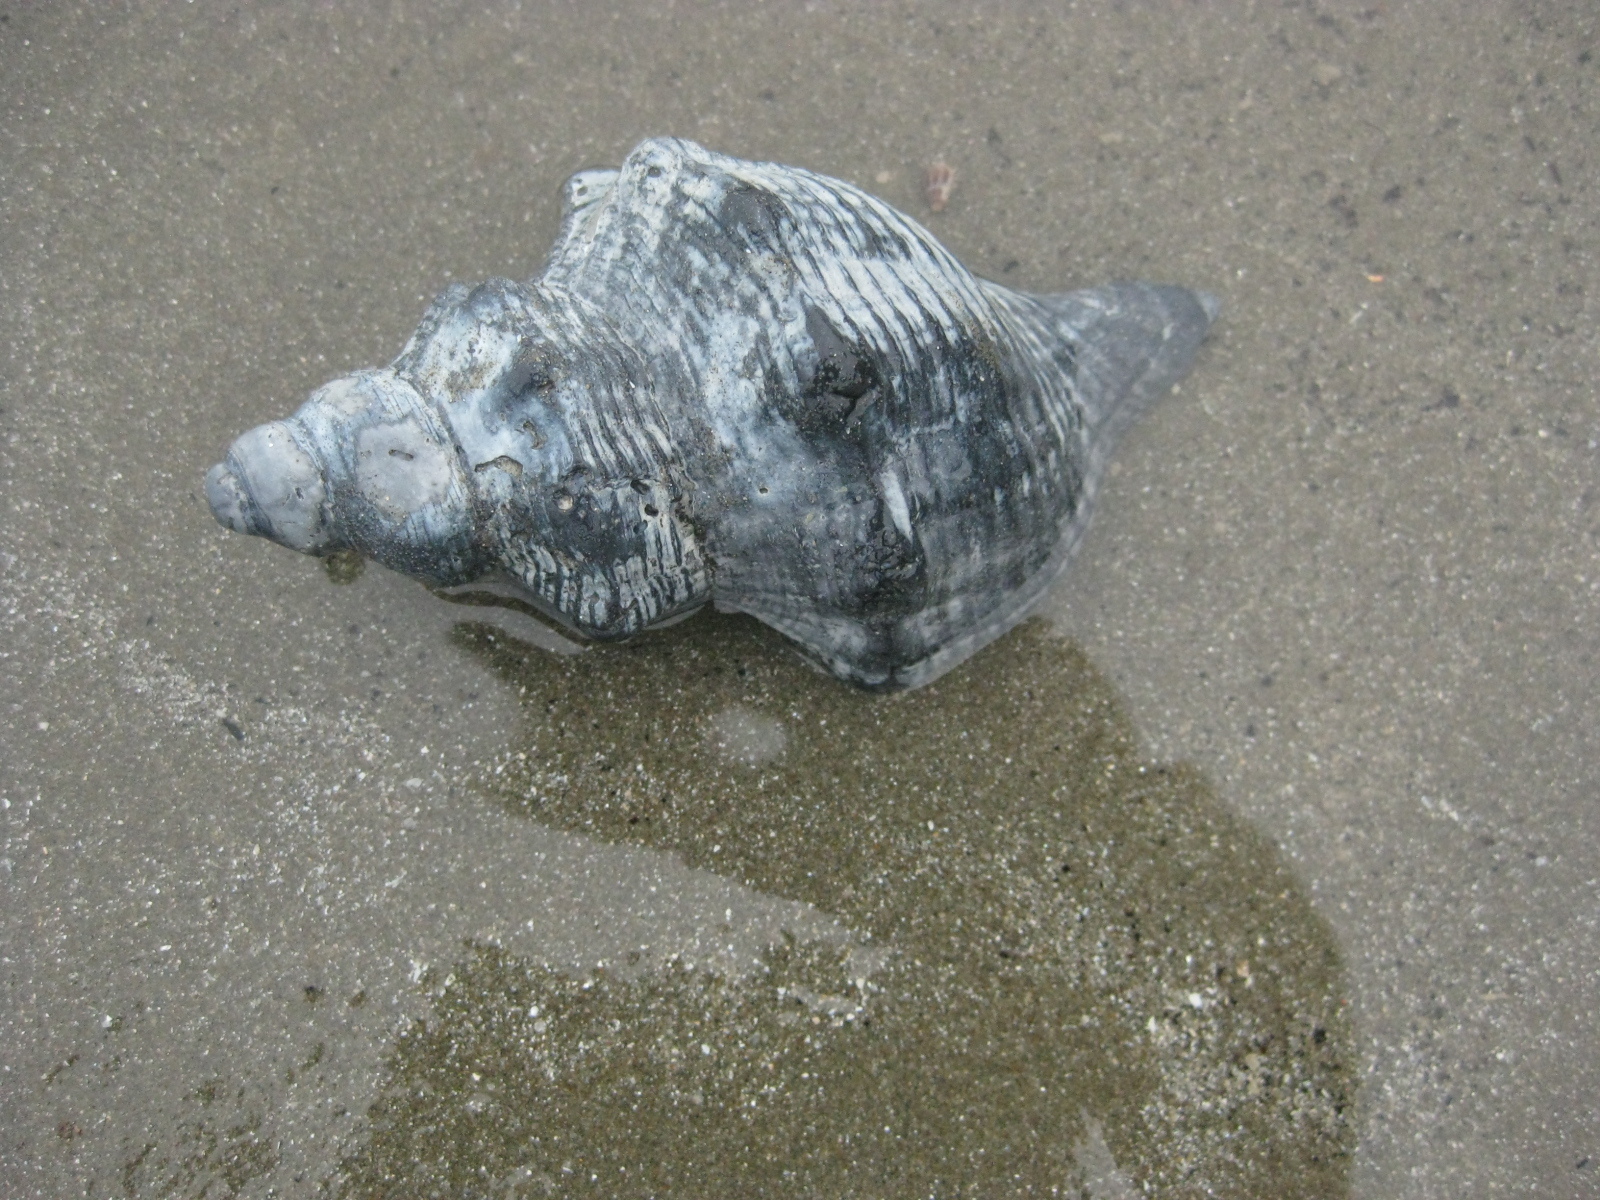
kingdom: Animalia
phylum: Mollusca
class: Gastropoda
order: Neogastropoda
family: Austrosiphonidae
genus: Penion
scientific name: Penion sulcatus
